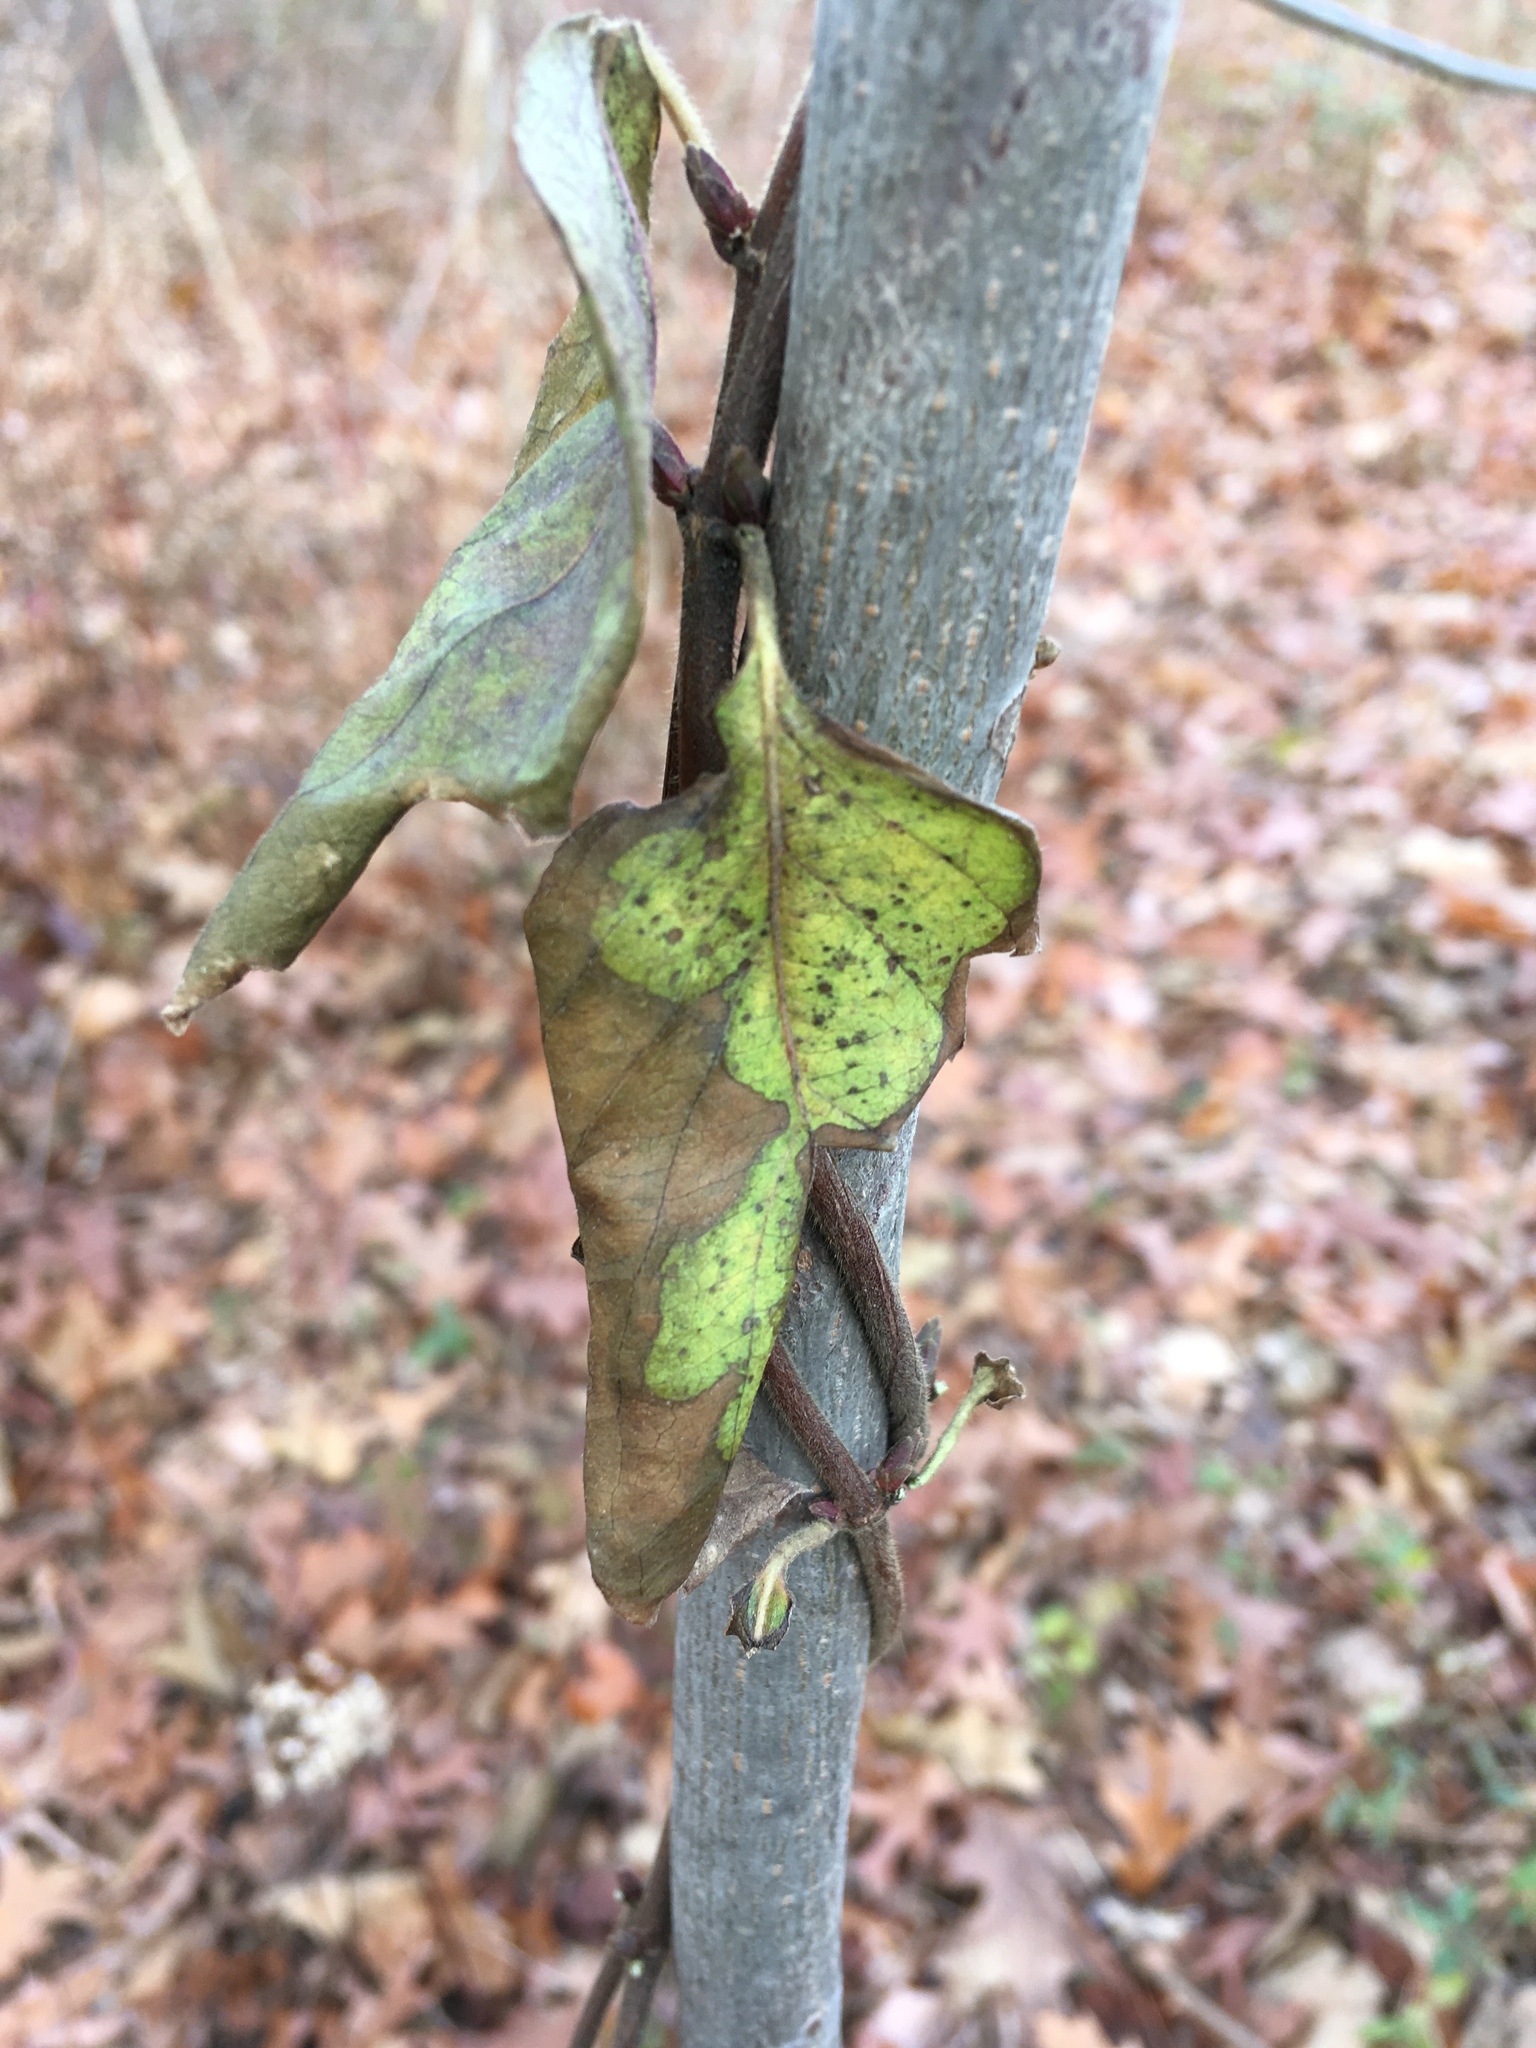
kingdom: Plantae
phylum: Tracheophyta
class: Magnoliopsida
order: Dipsacales
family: Caprifoliaceae
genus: Lonicera
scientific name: Lonicera japonica
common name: Japanese honeysuckle
